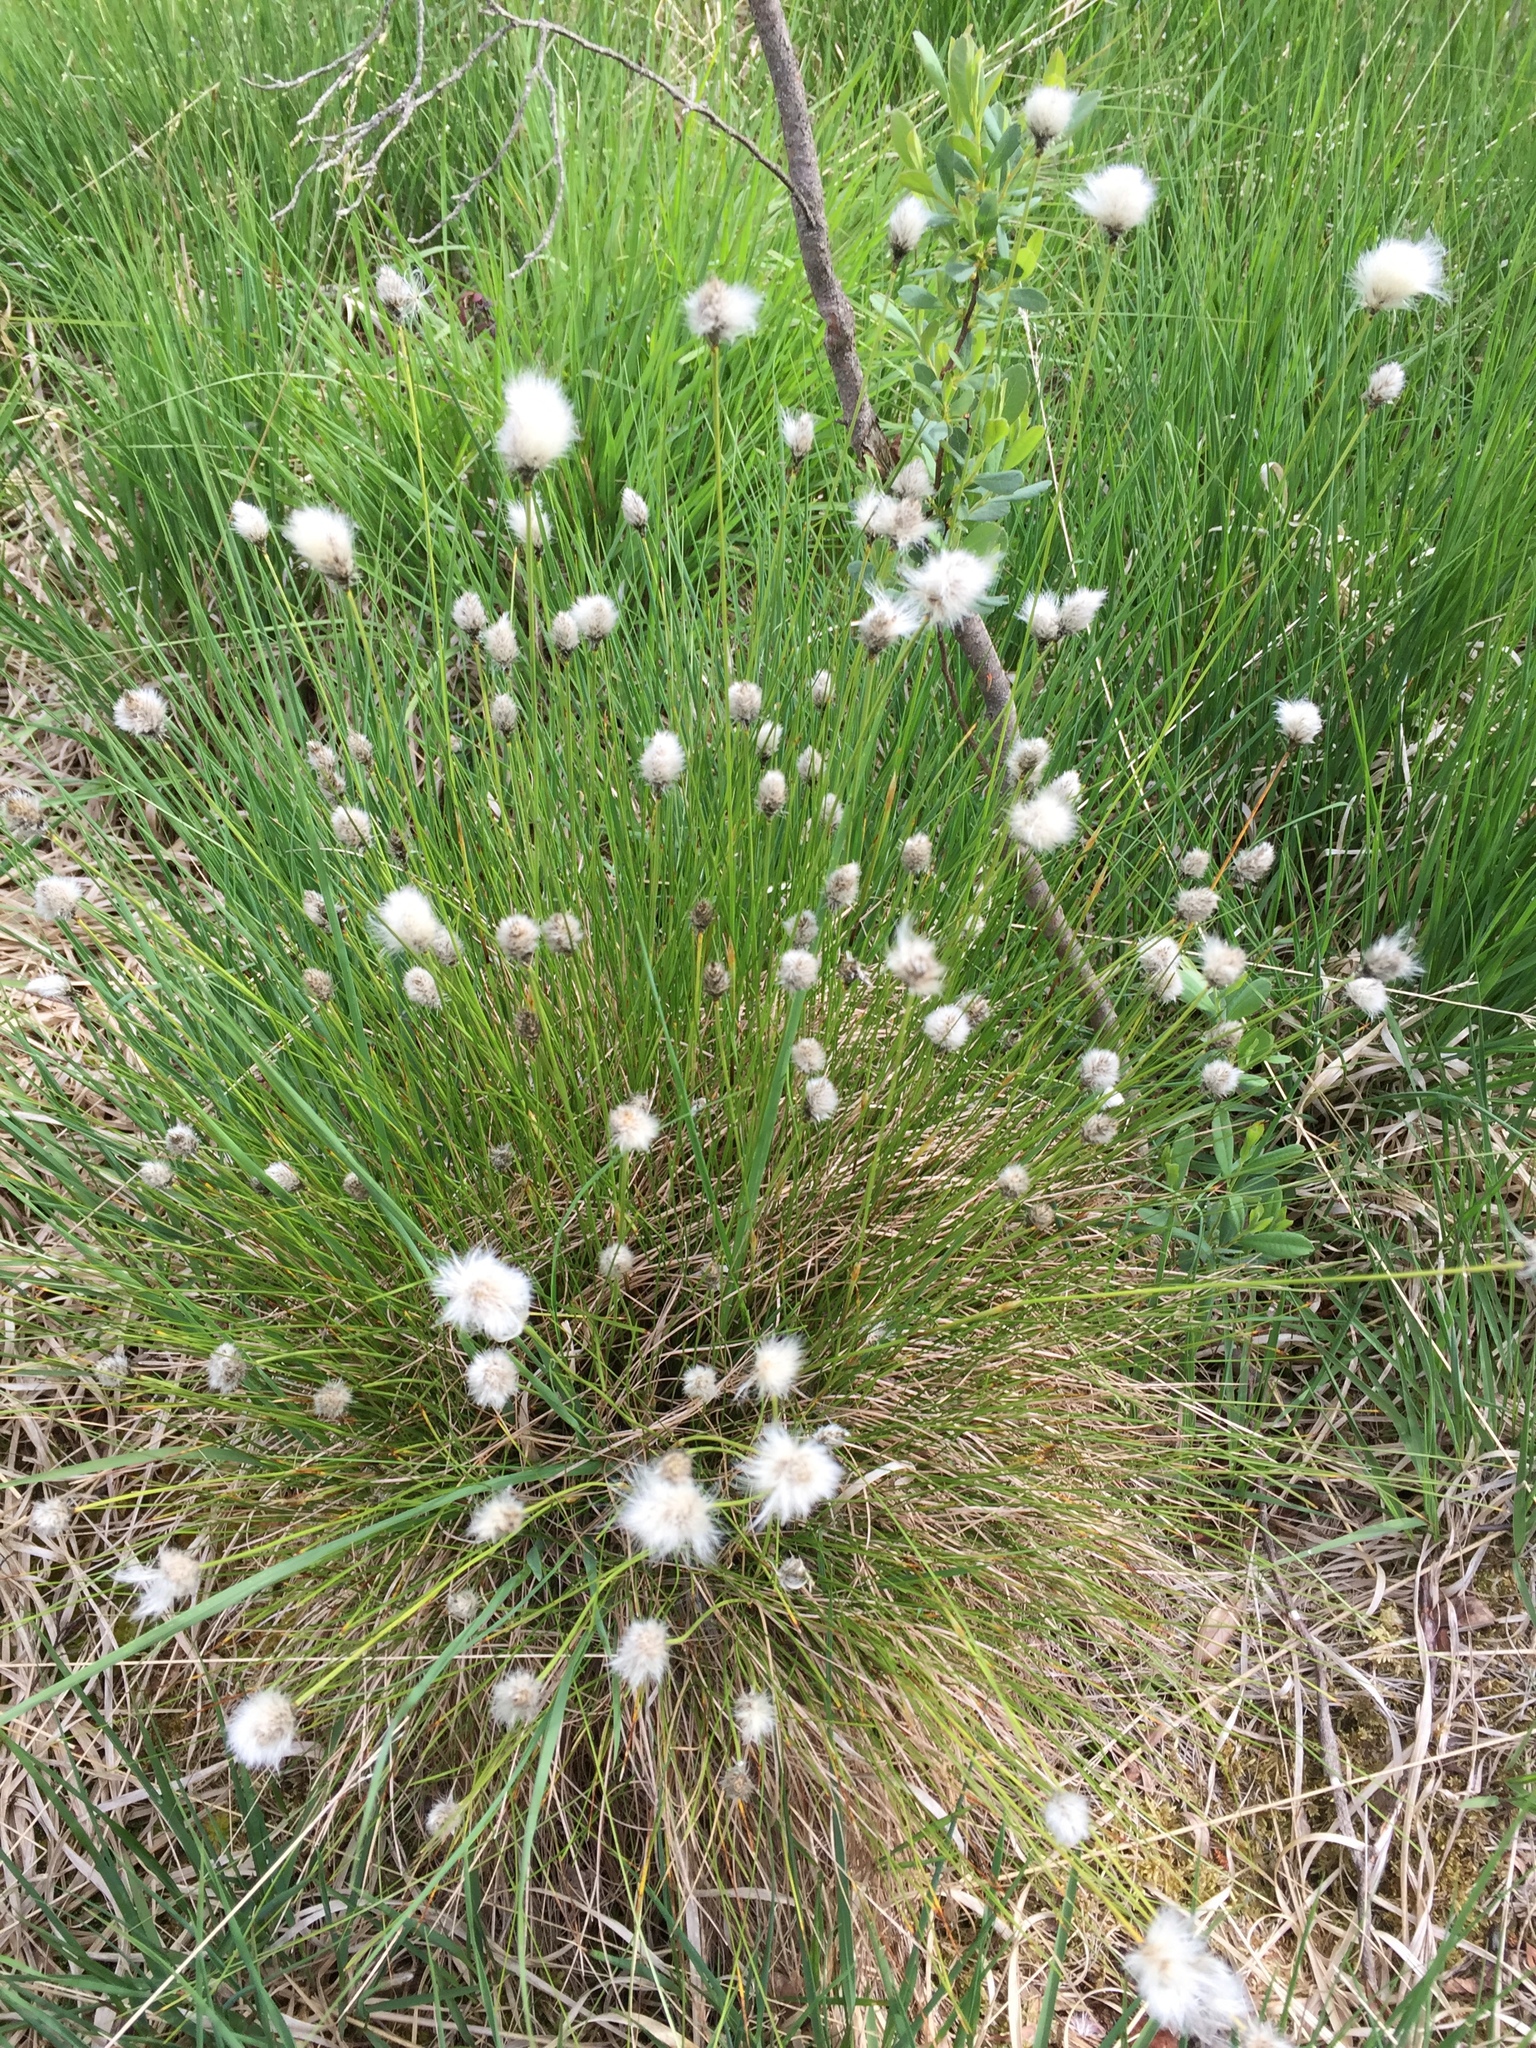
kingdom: Plantae
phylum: Tracheophyta
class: Liliopsida
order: Poales
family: Cyperaceae
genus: Eriophorum
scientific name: Eriophorum vaginatum
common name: Hare's-tail cottongrass
